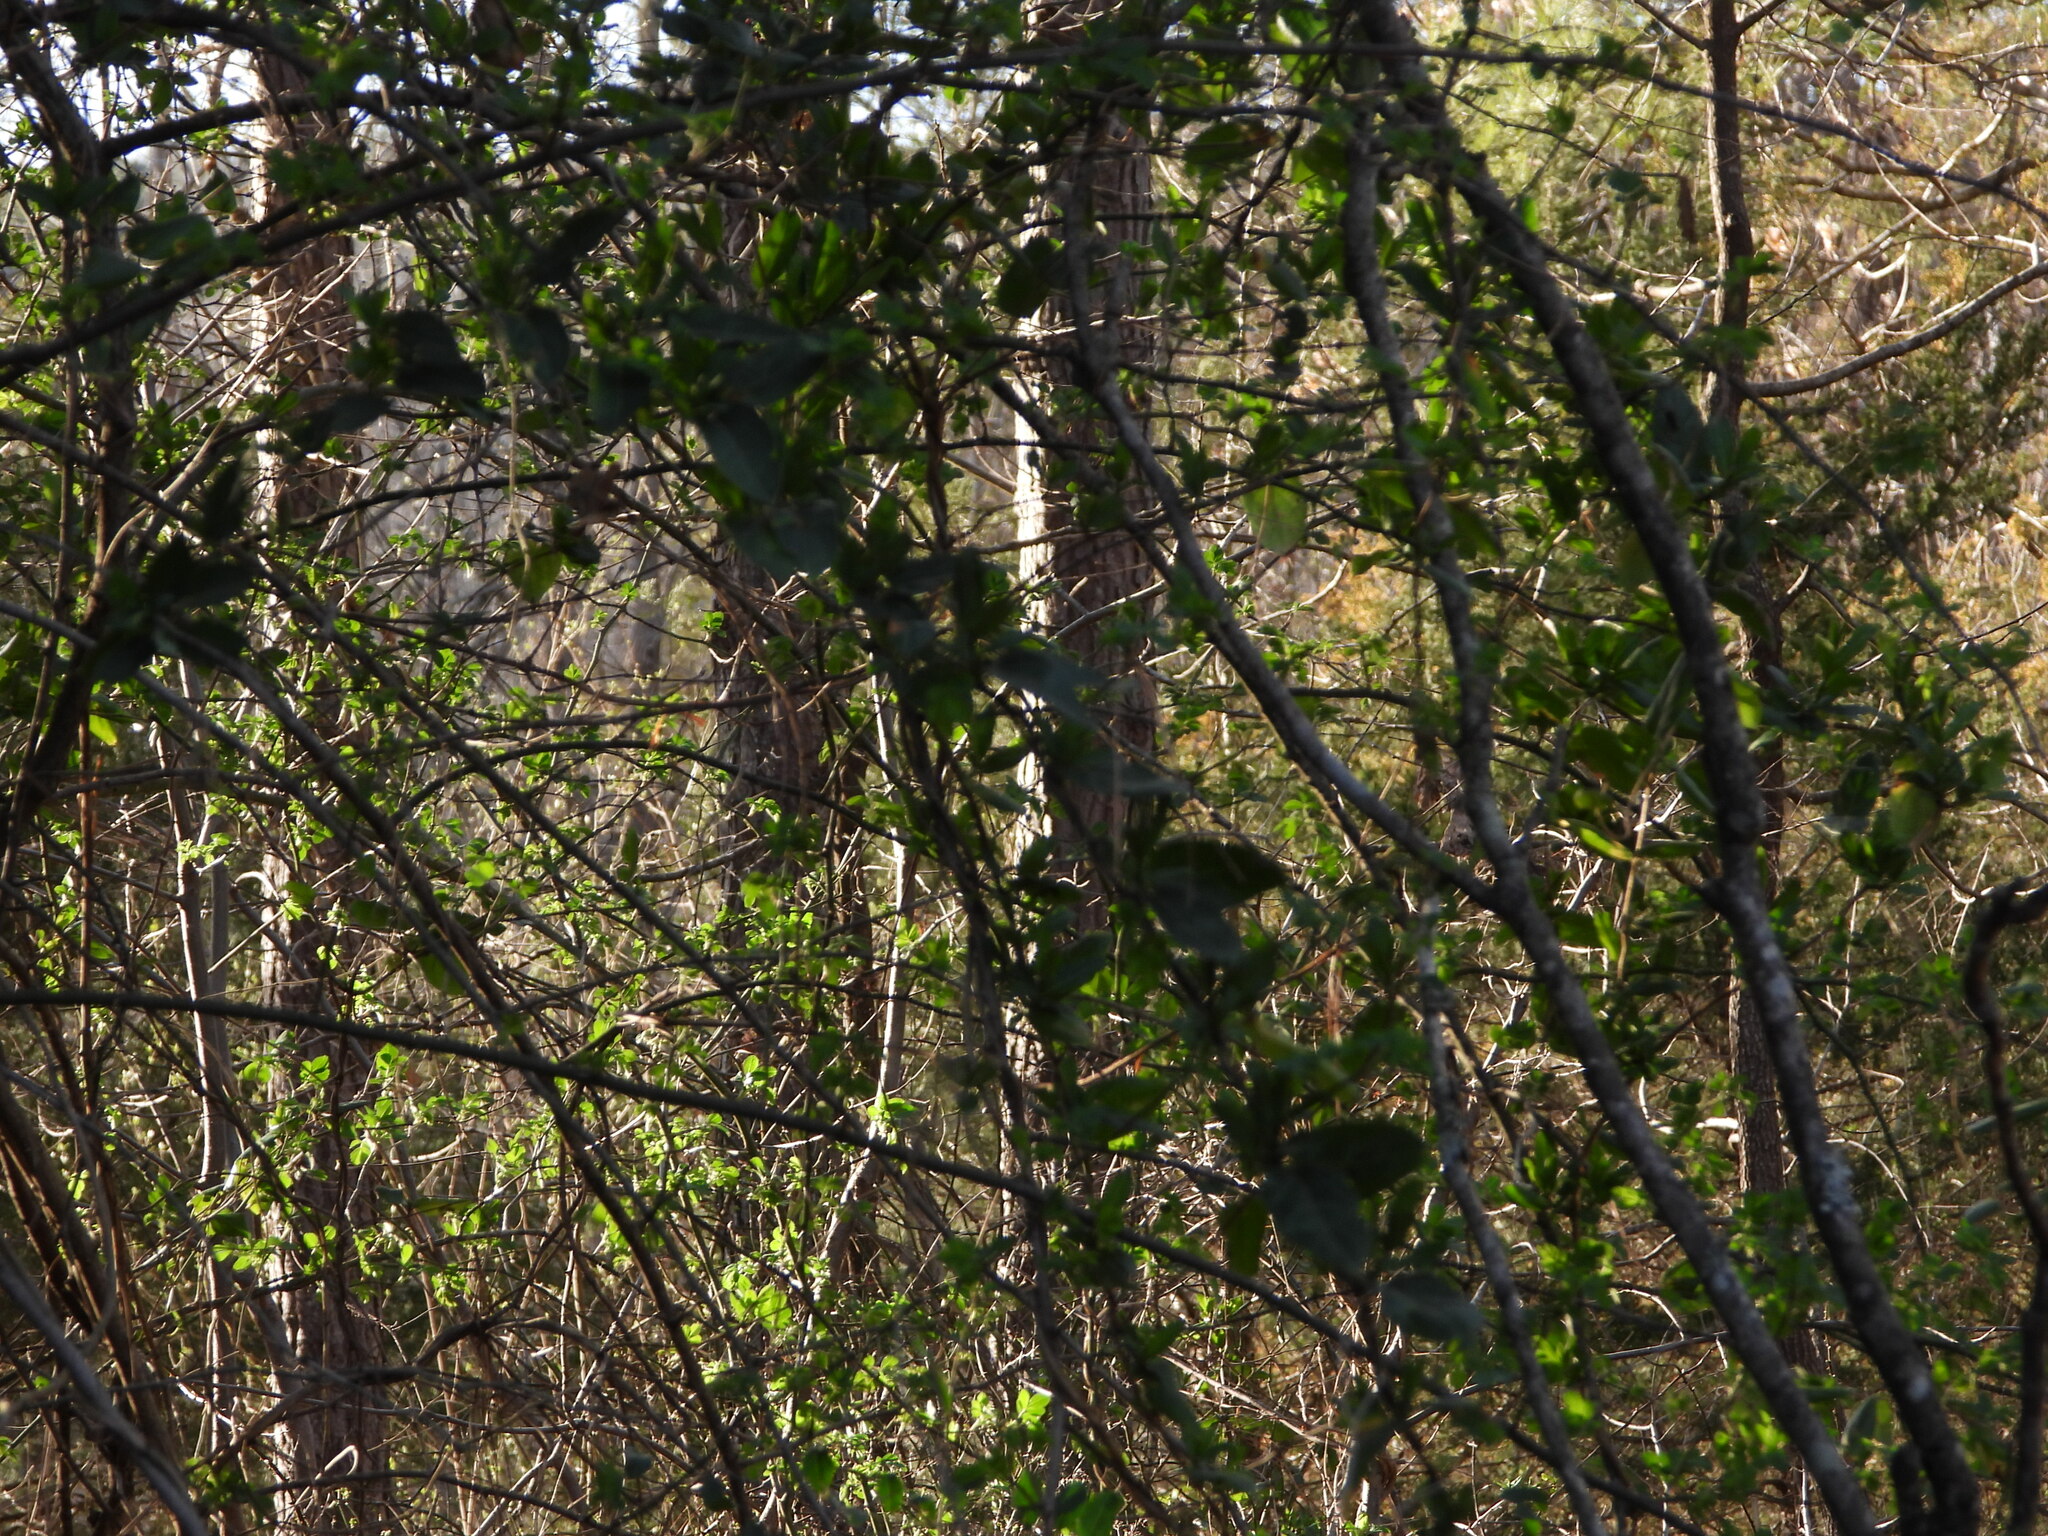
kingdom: Plantae
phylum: Tracheophyta
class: Magnoliopsida
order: Dipsacales
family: Caprifoliaceae
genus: Lonicera
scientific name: Lonicera japonica
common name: Japanese honeysuckle
